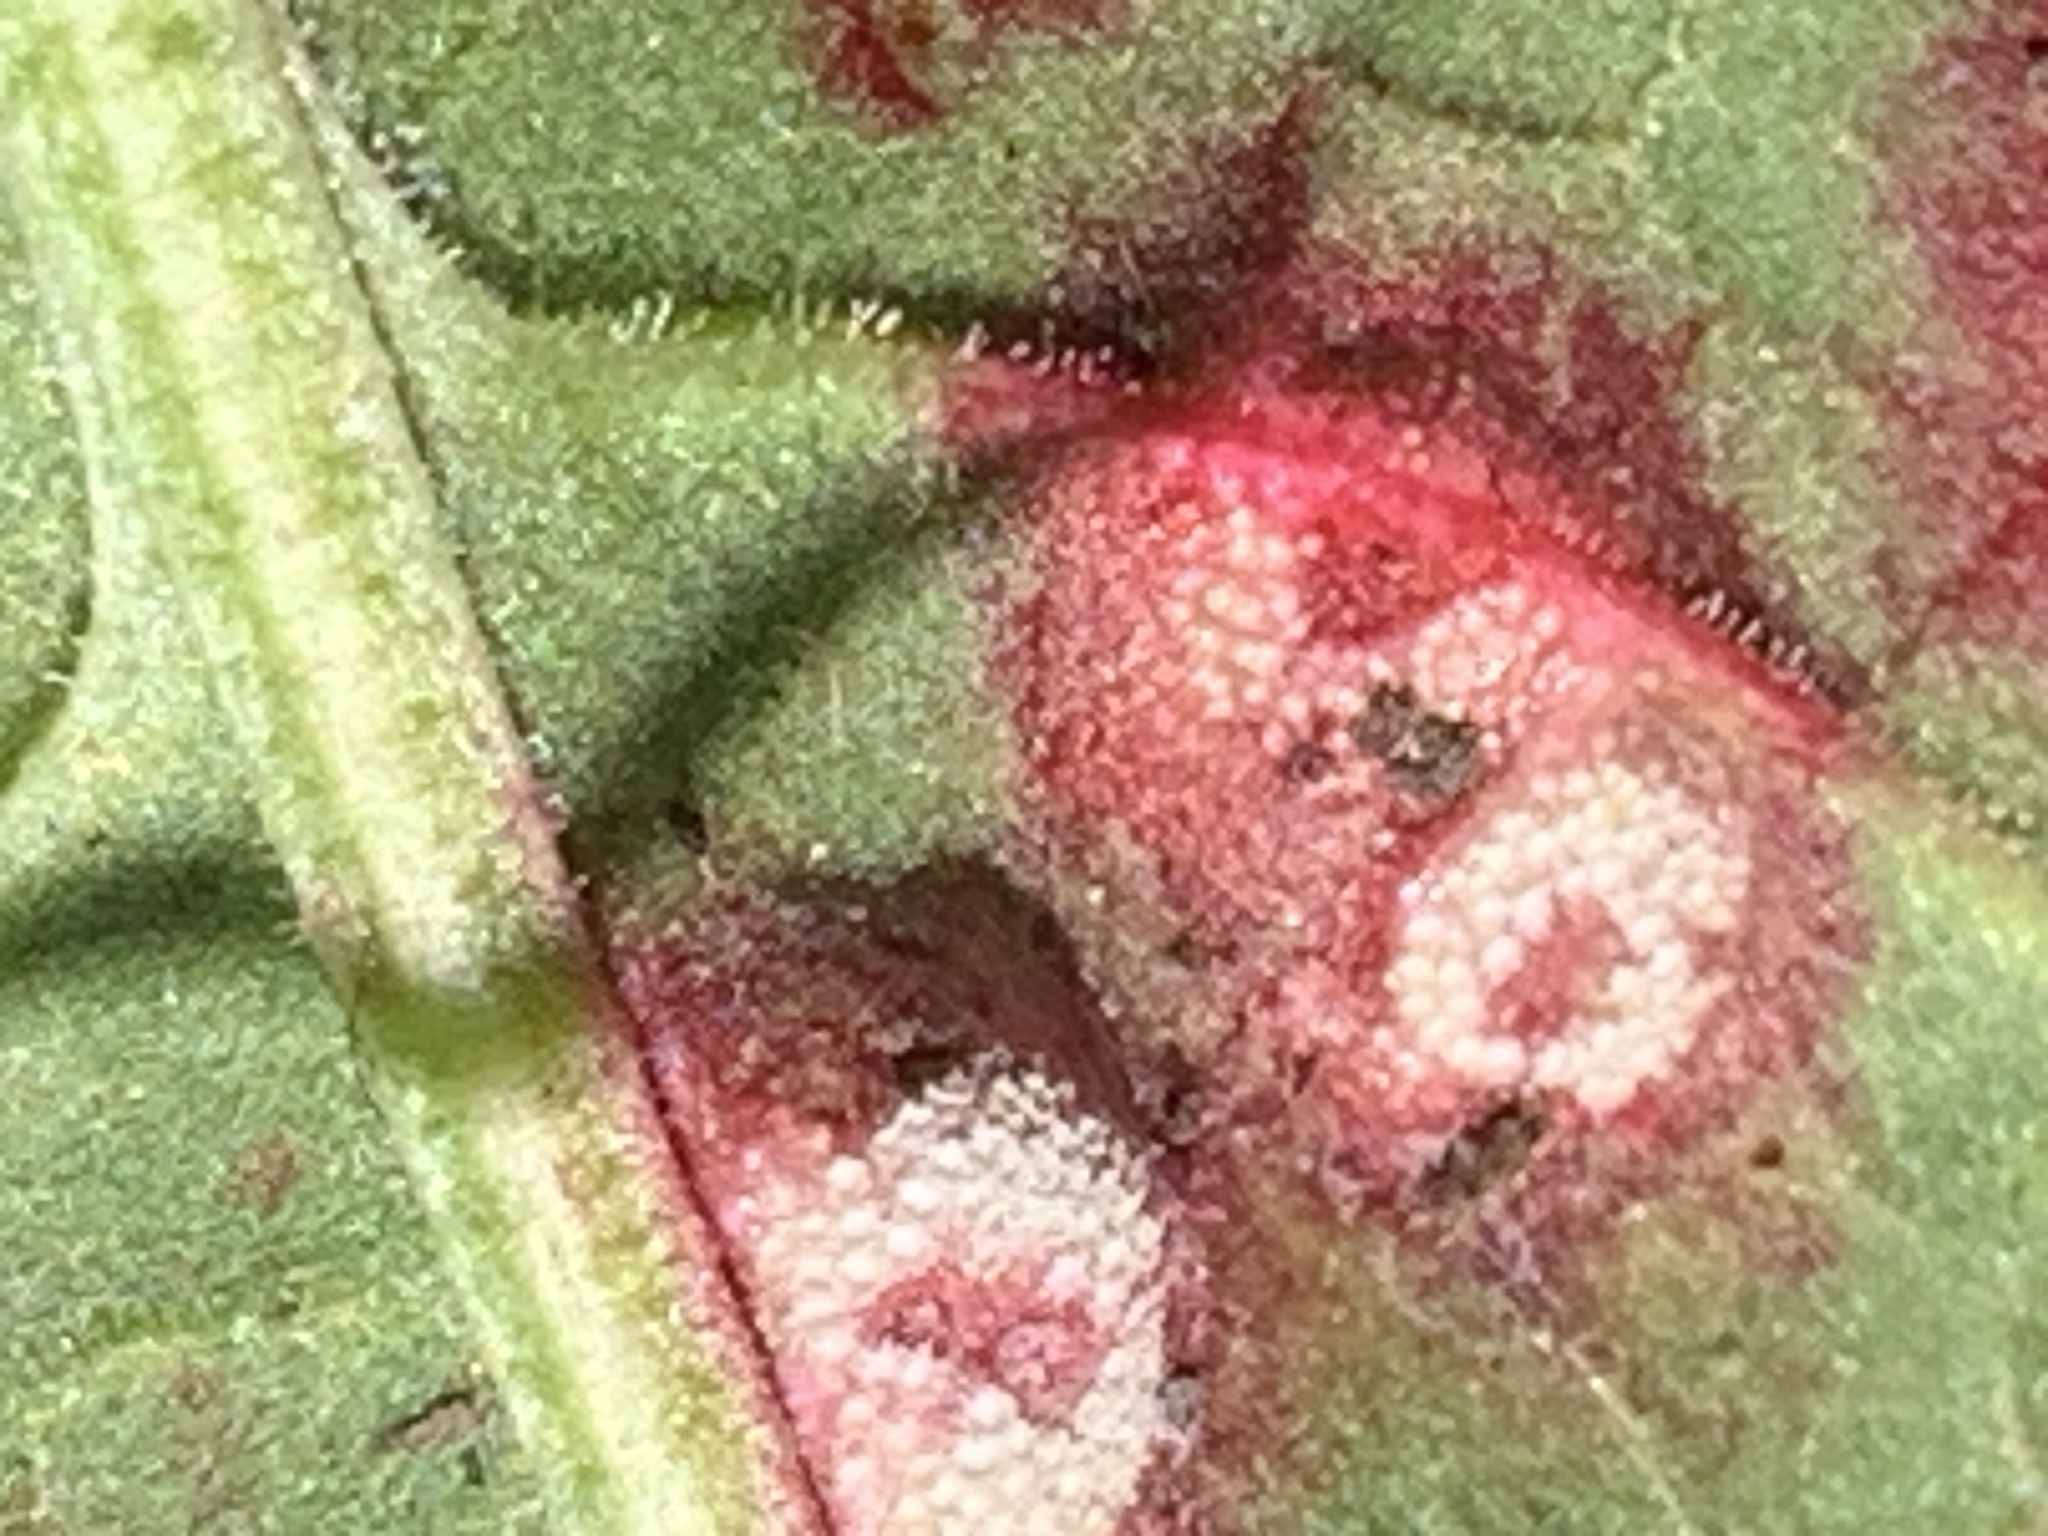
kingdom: Fungi
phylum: Basidiomycota
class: Pucciniomycetes
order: Pucciniales
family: Pucciniaceae
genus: Puccinia
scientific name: Puccinia phragmitis
